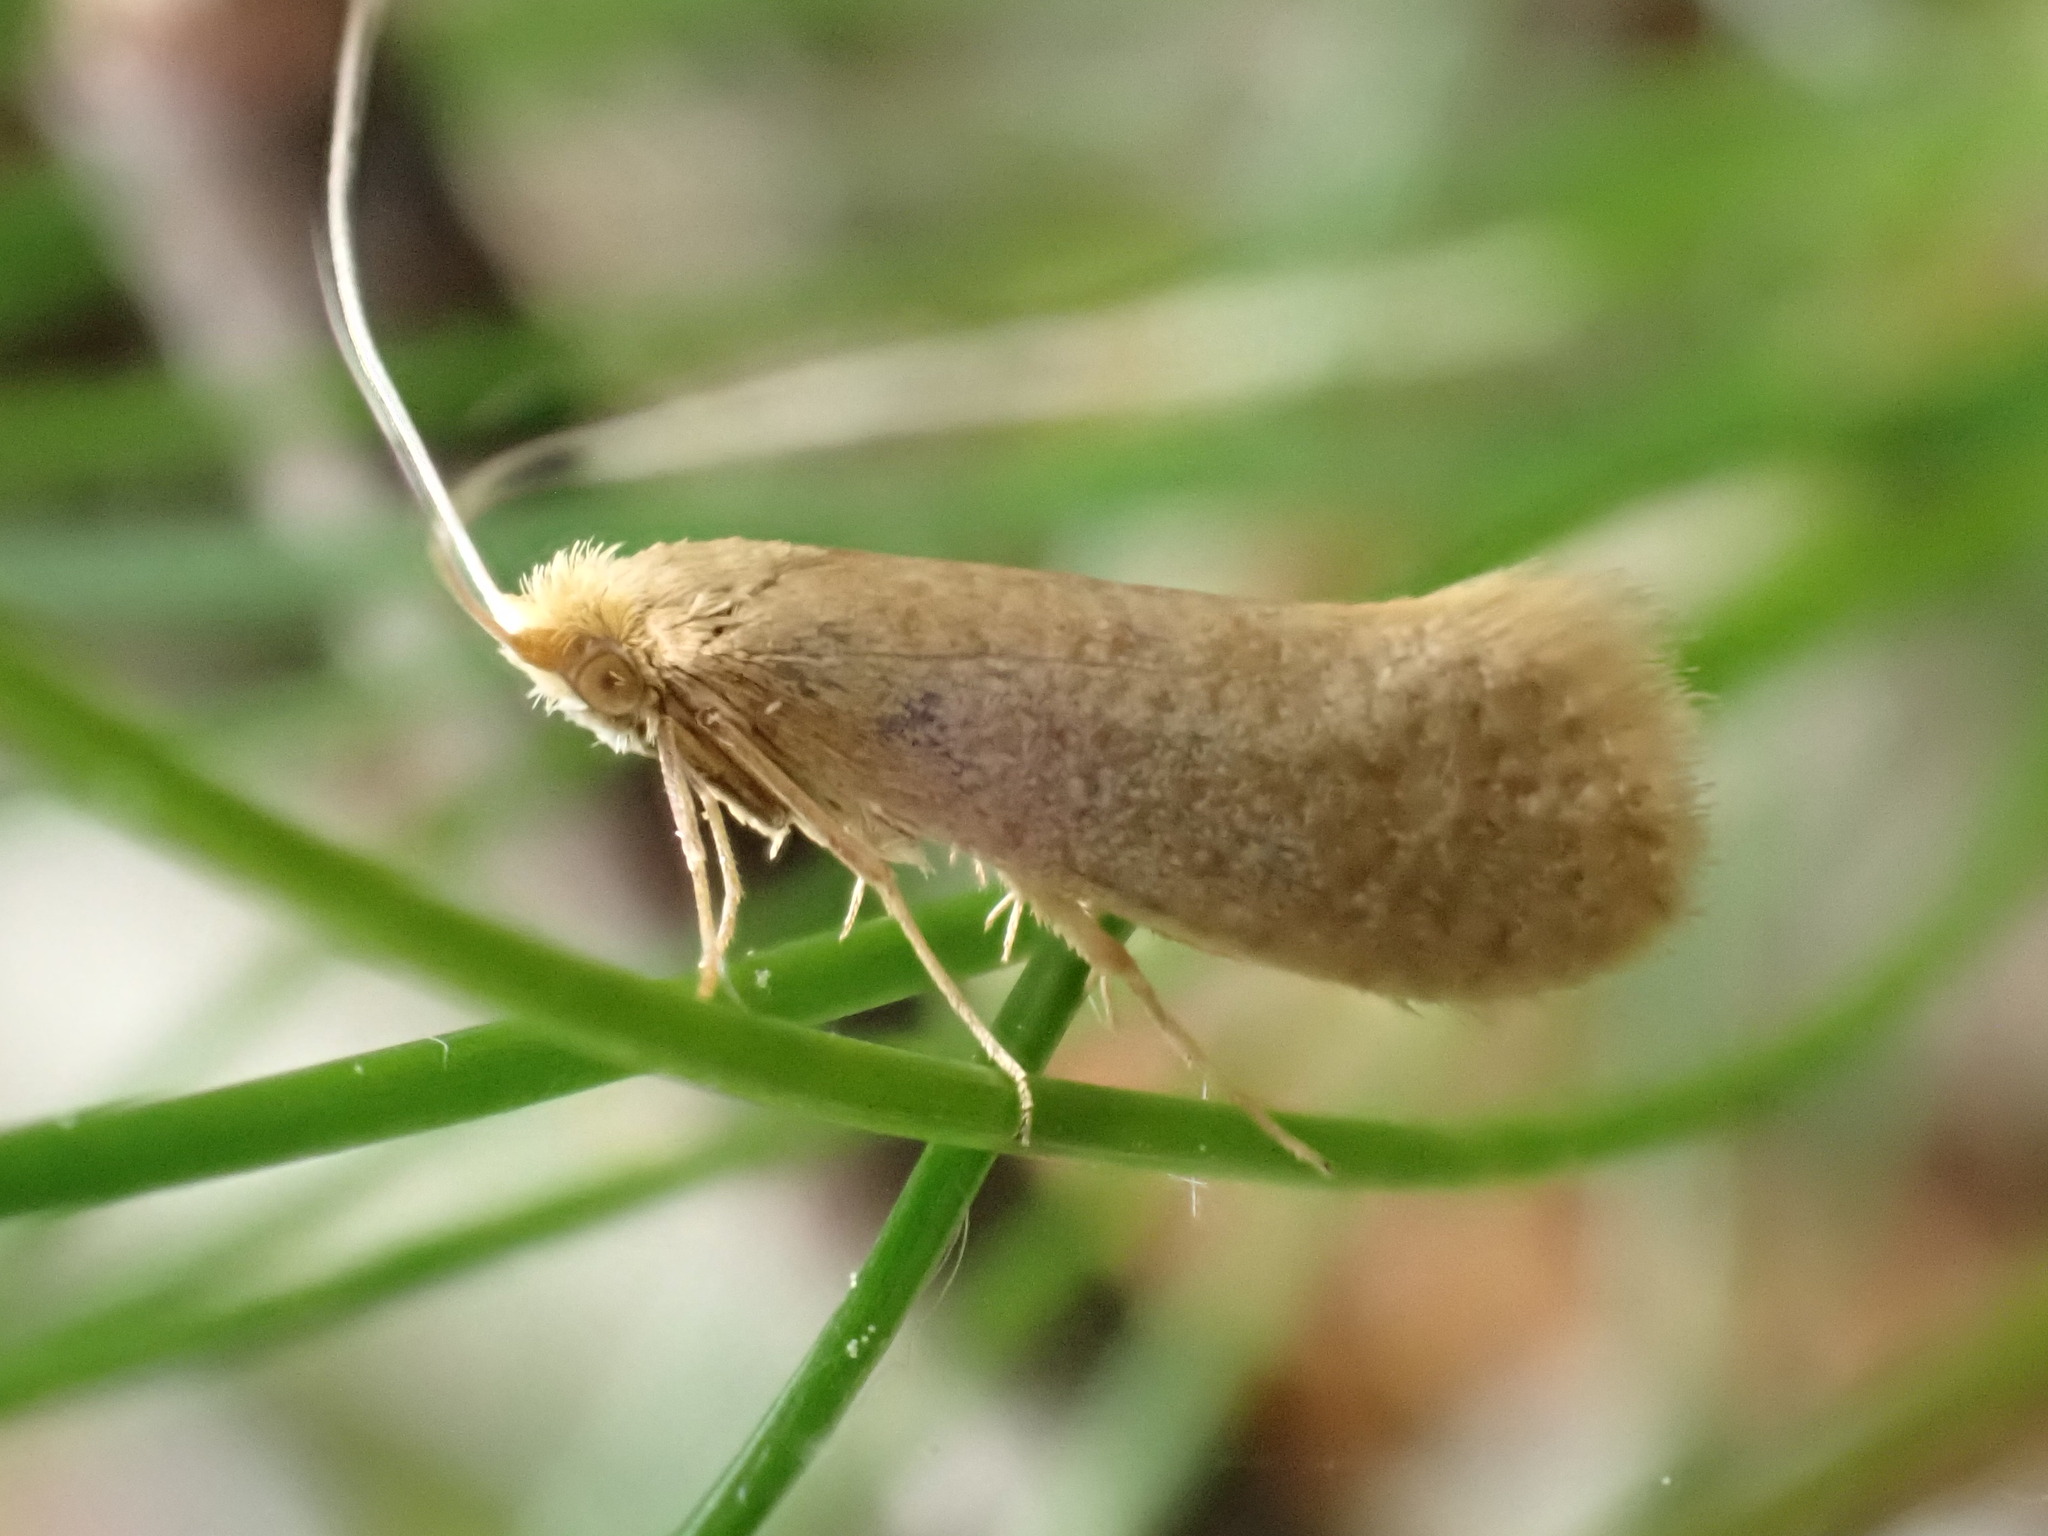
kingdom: Animalia
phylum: Arthropoda
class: Insecta
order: Lepidoptera
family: Adelidae
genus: Nematopogon
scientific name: Nematopogon swammerdamella
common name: Large long-horn
